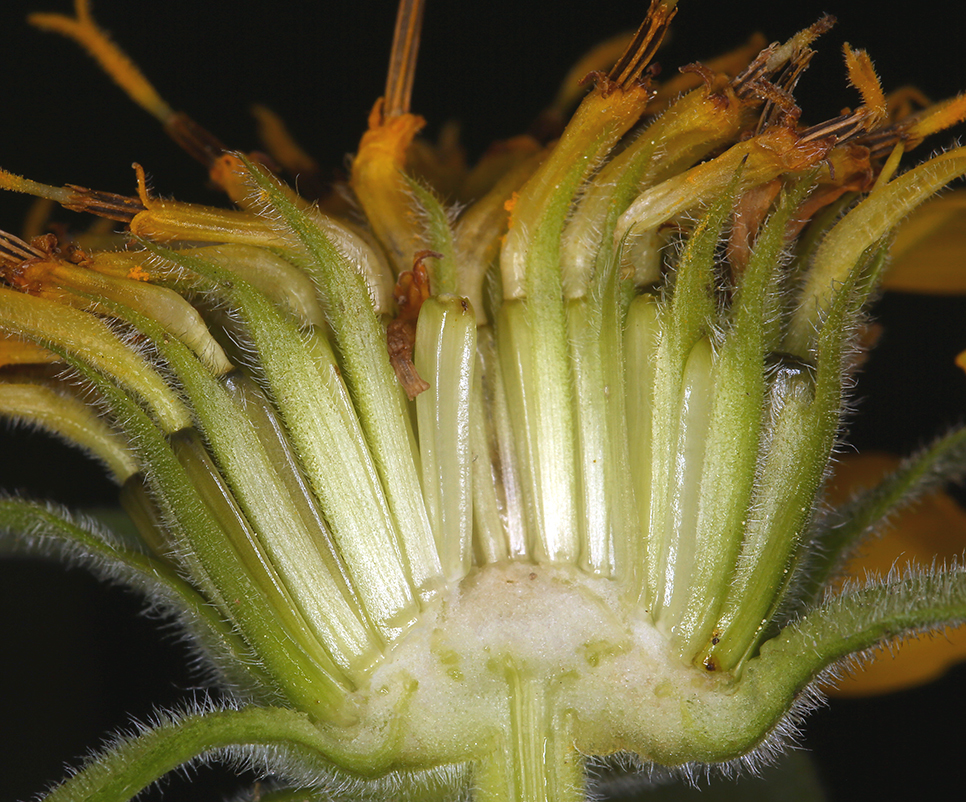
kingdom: Plantae
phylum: Tracheophyta
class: Magnoliopsida
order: Asterales
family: Asteraceae
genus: Balsamorhiza
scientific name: Balsamorhiza deltoidea
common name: Deltoid balsamroot
